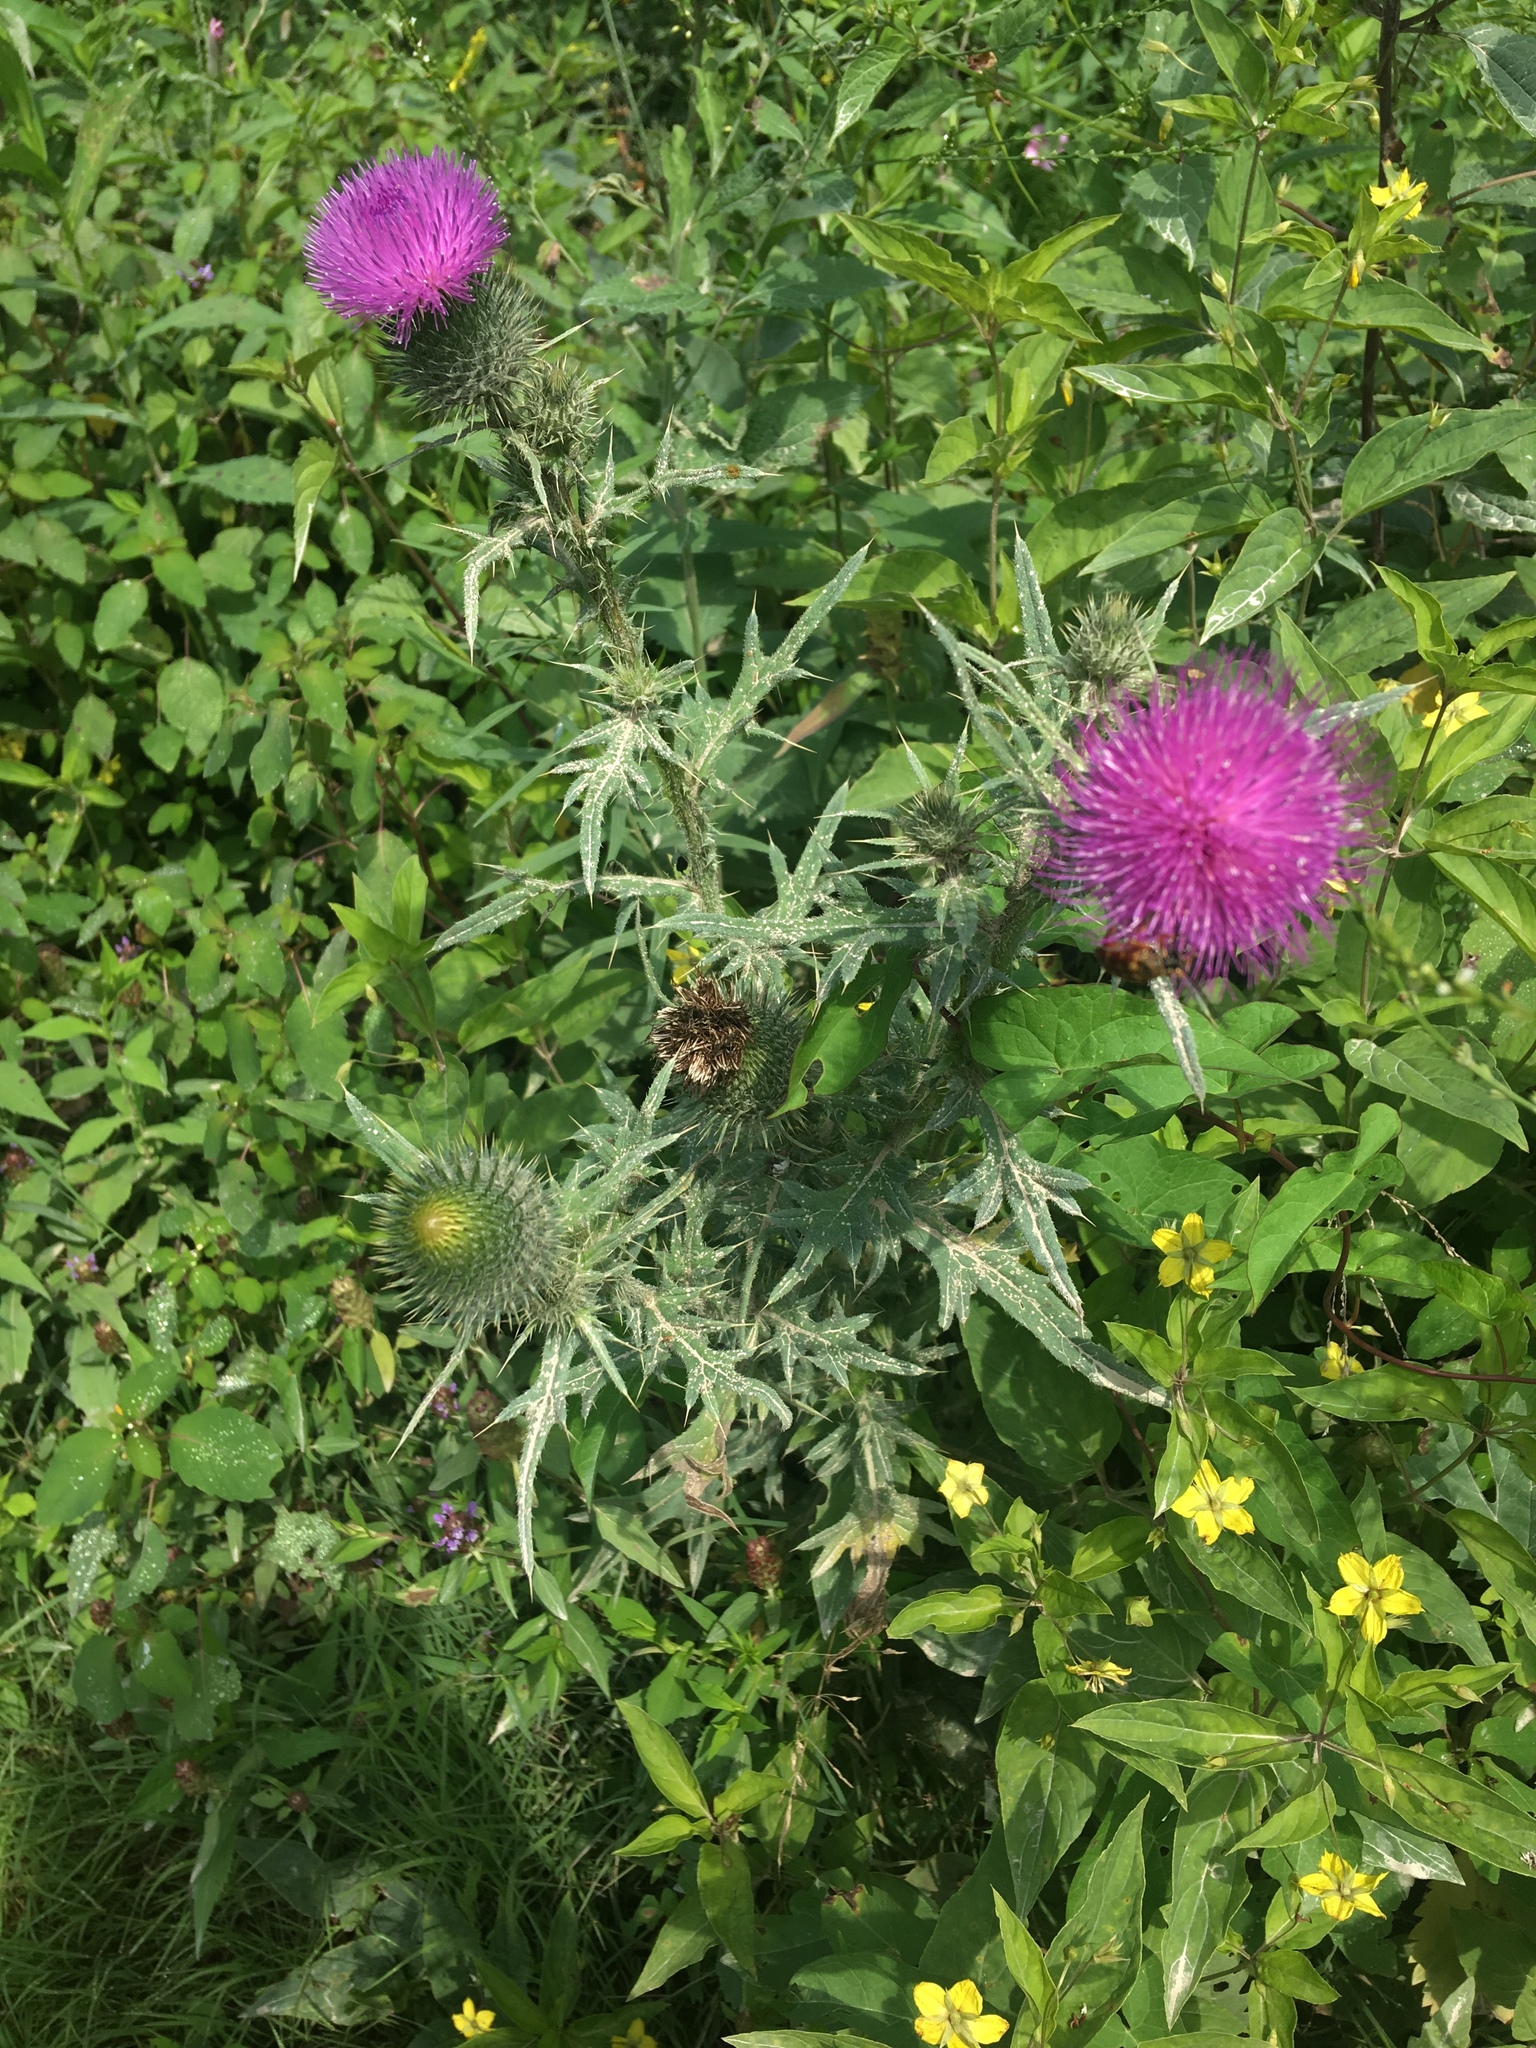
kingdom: Plantae
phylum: Tracheophyta
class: Magnoliopsida
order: Asterales
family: Asteraceae
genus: Cirsium
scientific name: Cirsium vulgare
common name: Bull thistle
